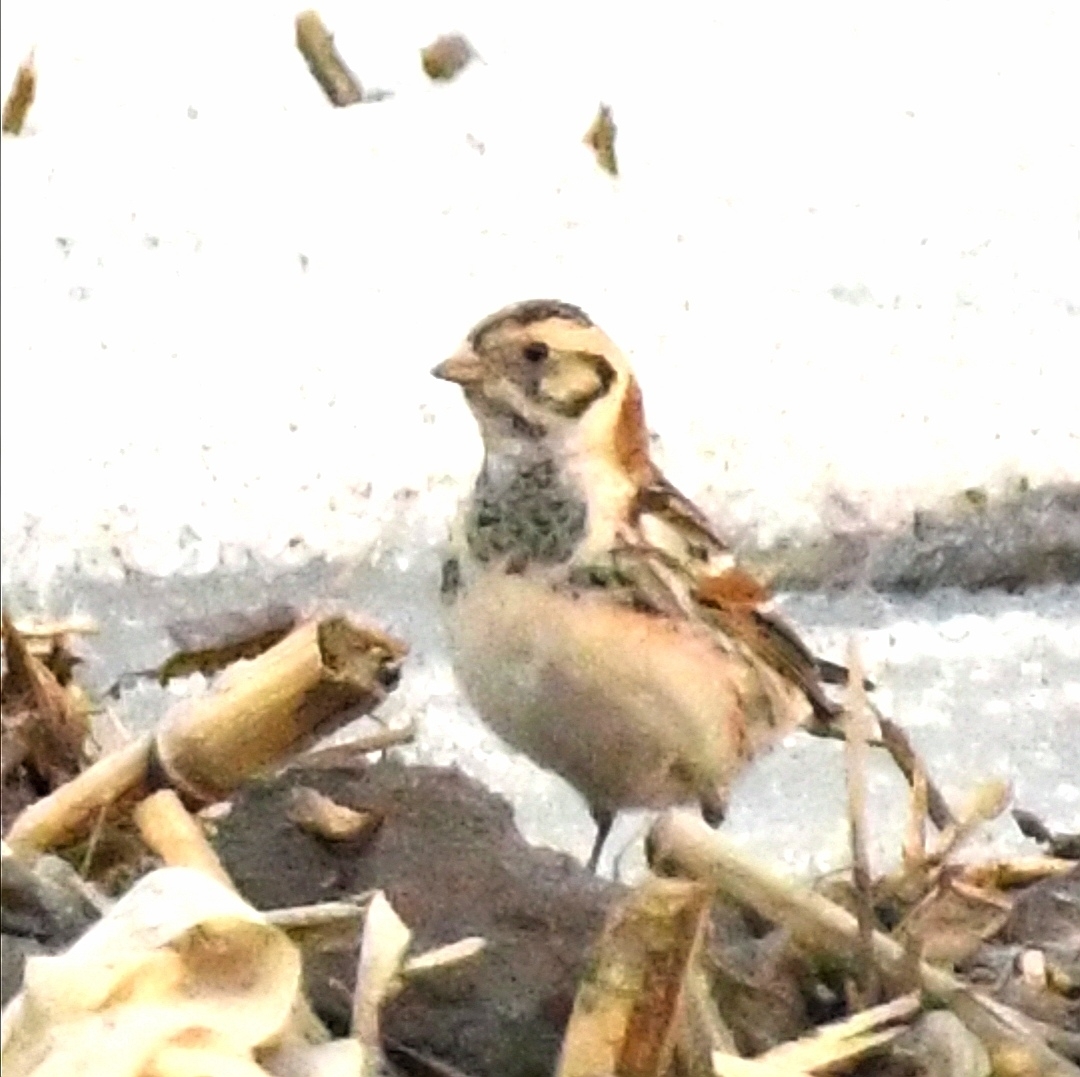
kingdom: Animalia
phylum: Chordata
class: Aves
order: Passeriformes
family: Calcariidae
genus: Calcarius
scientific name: Calcarius lapponicus
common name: Lapland longspur
